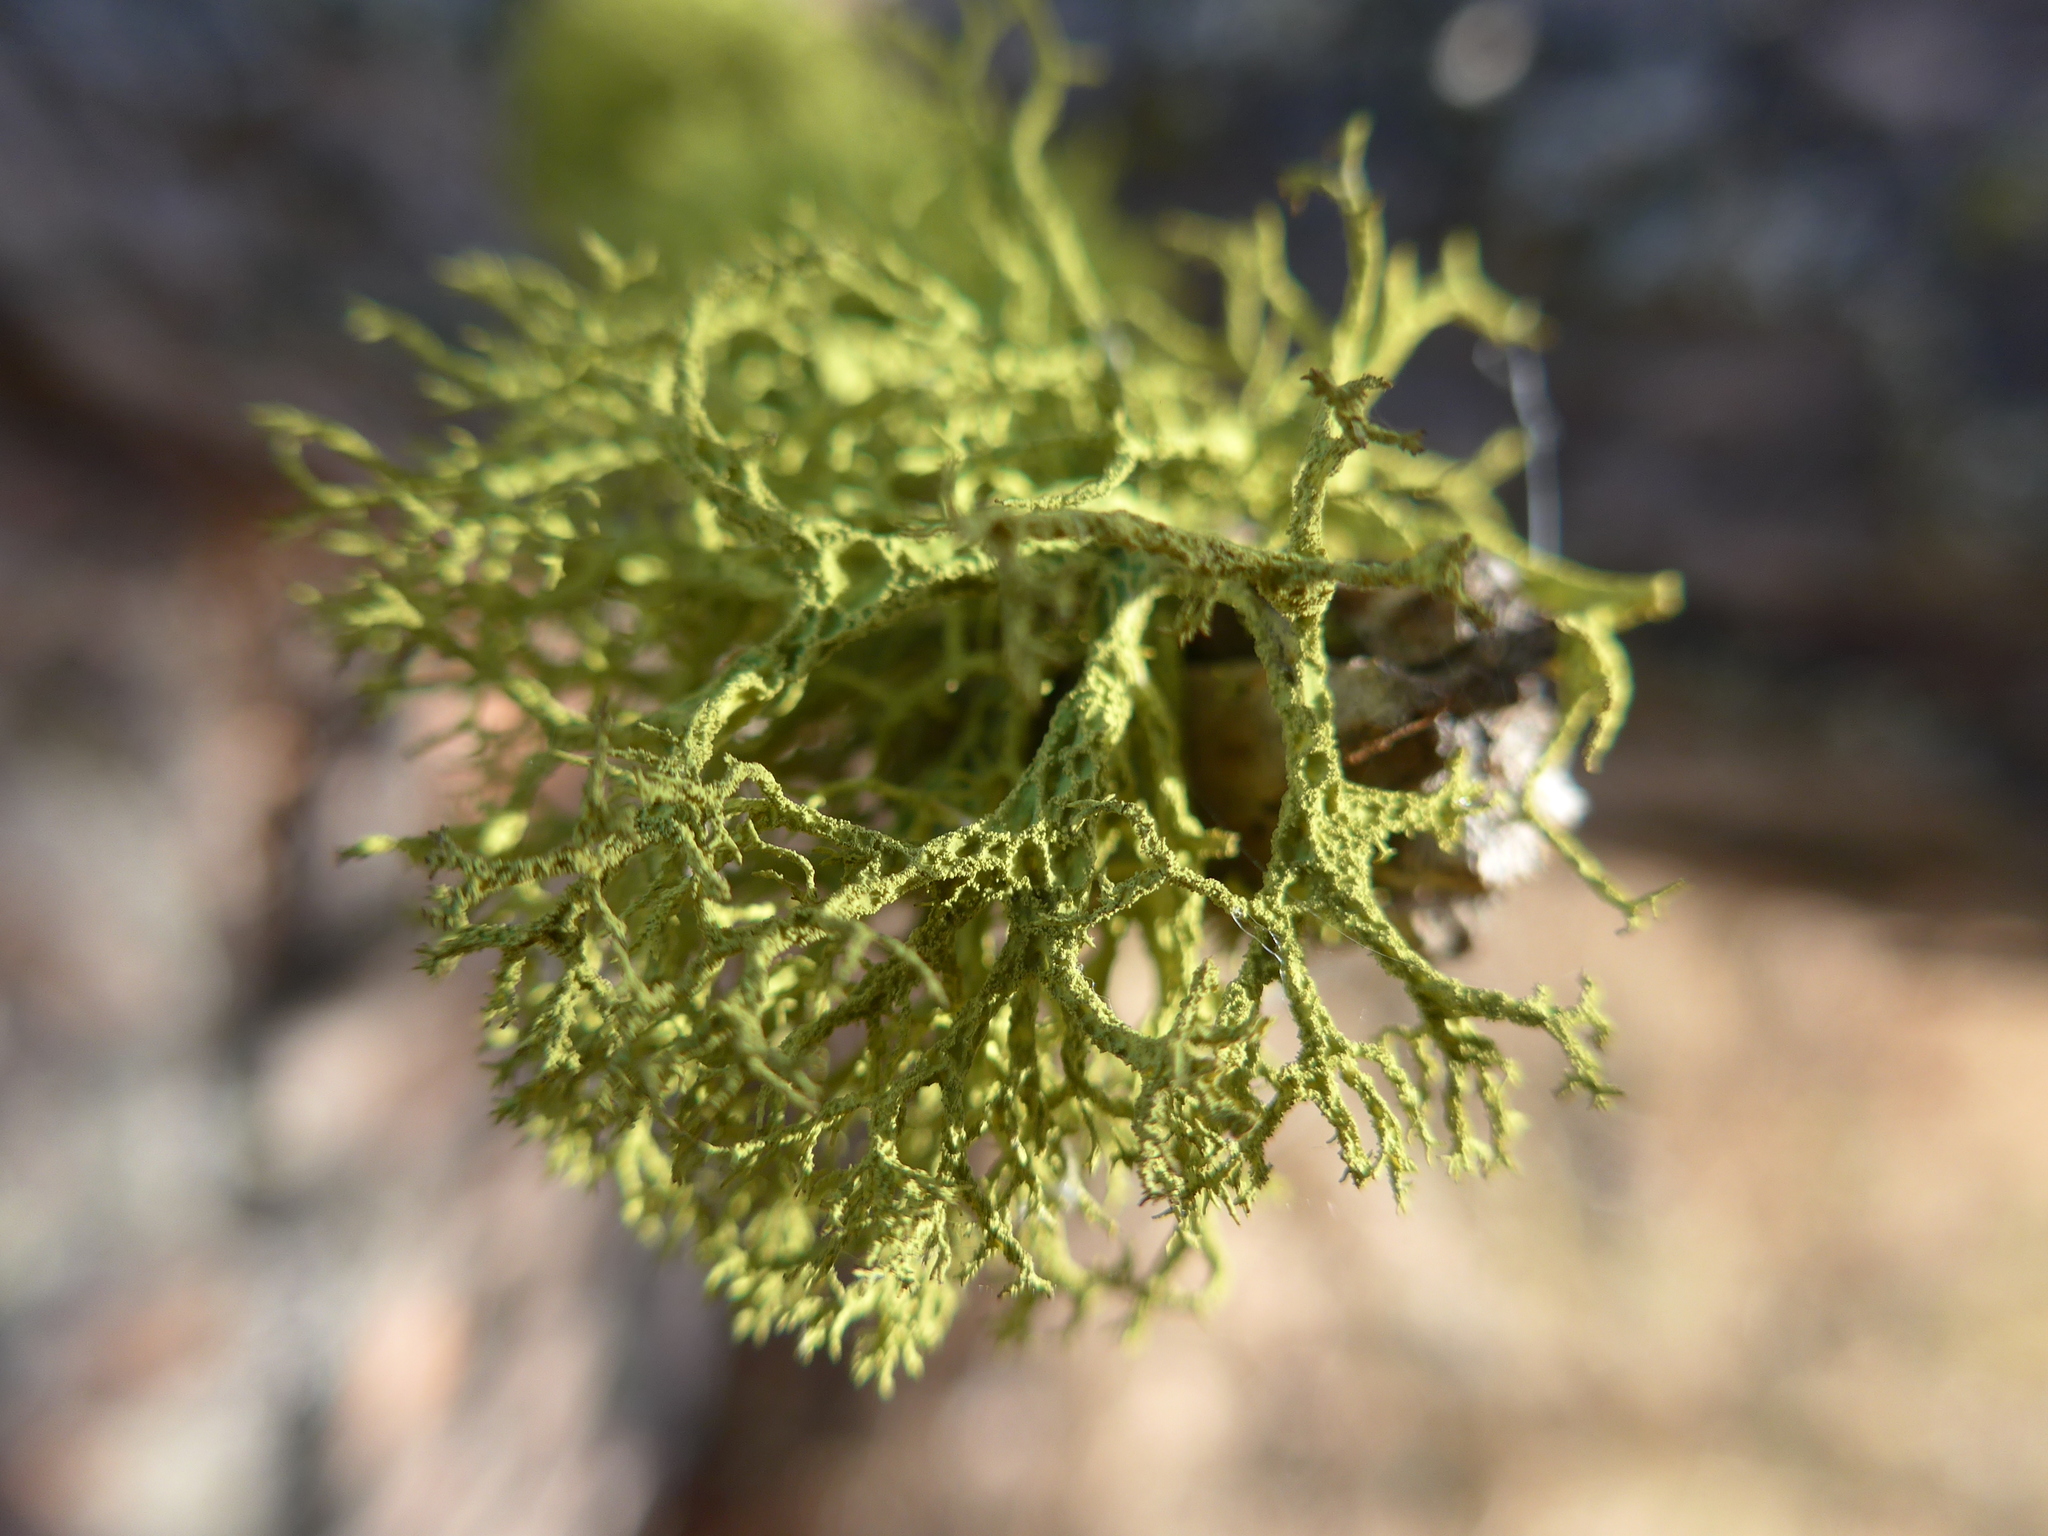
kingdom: Fungi
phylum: Ascomycota
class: Lecanoromycetes
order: Lecanorales
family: Parmeliaceae
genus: Letharia
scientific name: Letharia vulpina
